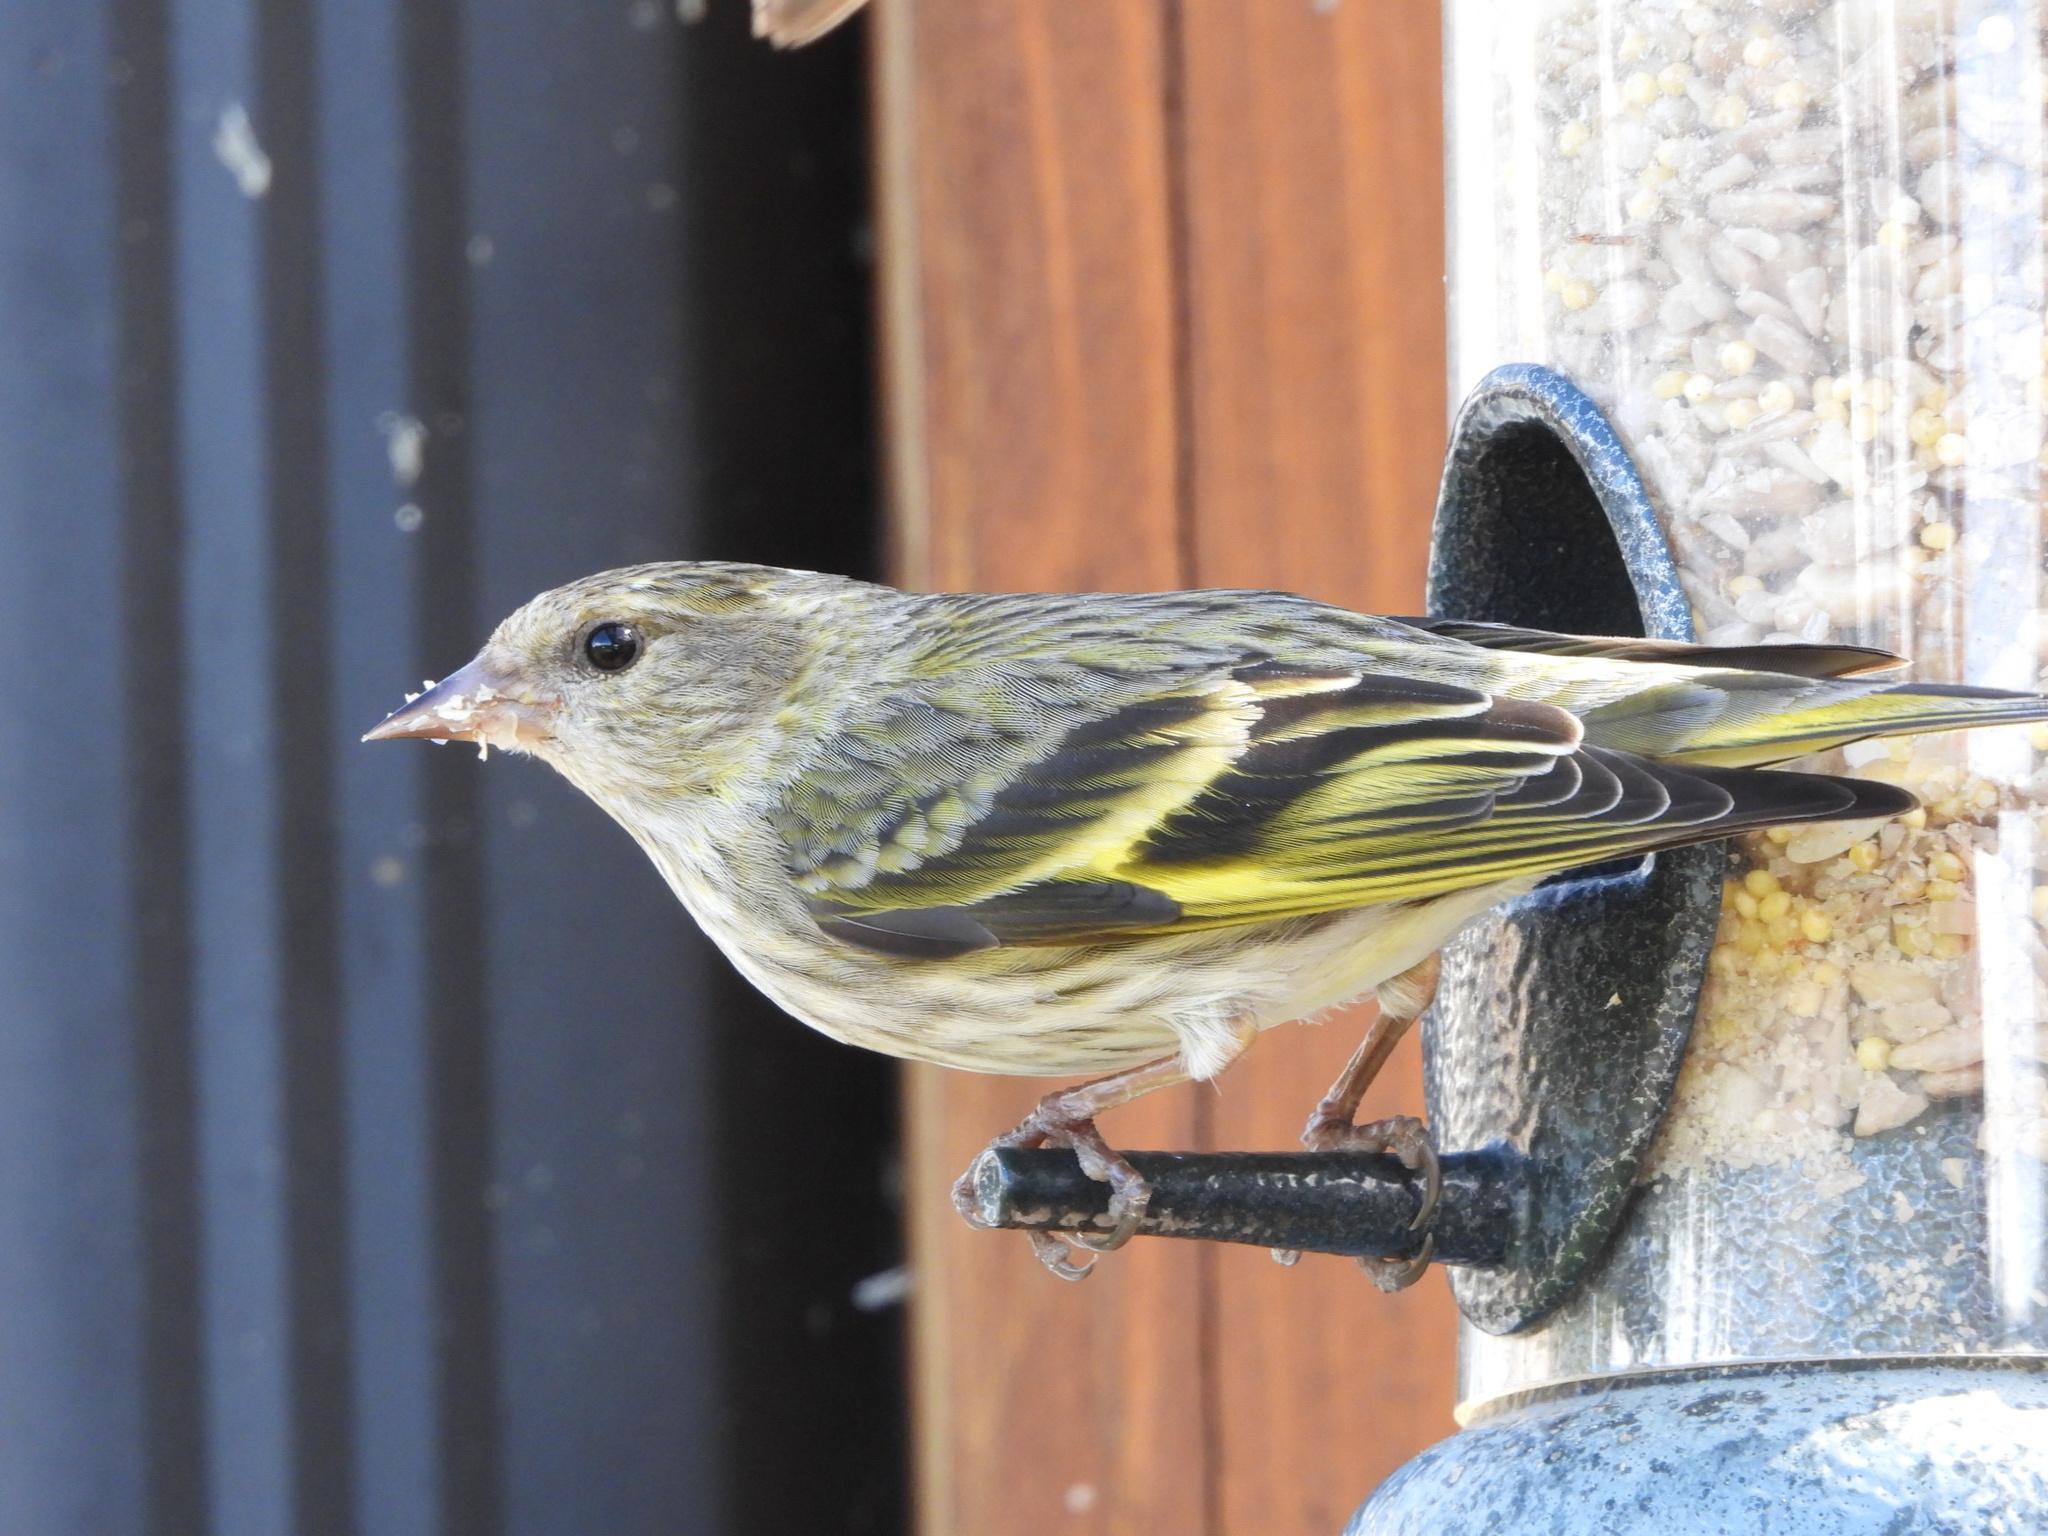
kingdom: Animalia
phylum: Chordata
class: Aves
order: Passeriformes
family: Fringillidae
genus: Spinus
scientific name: Spinus pinus
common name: Pine siskin
